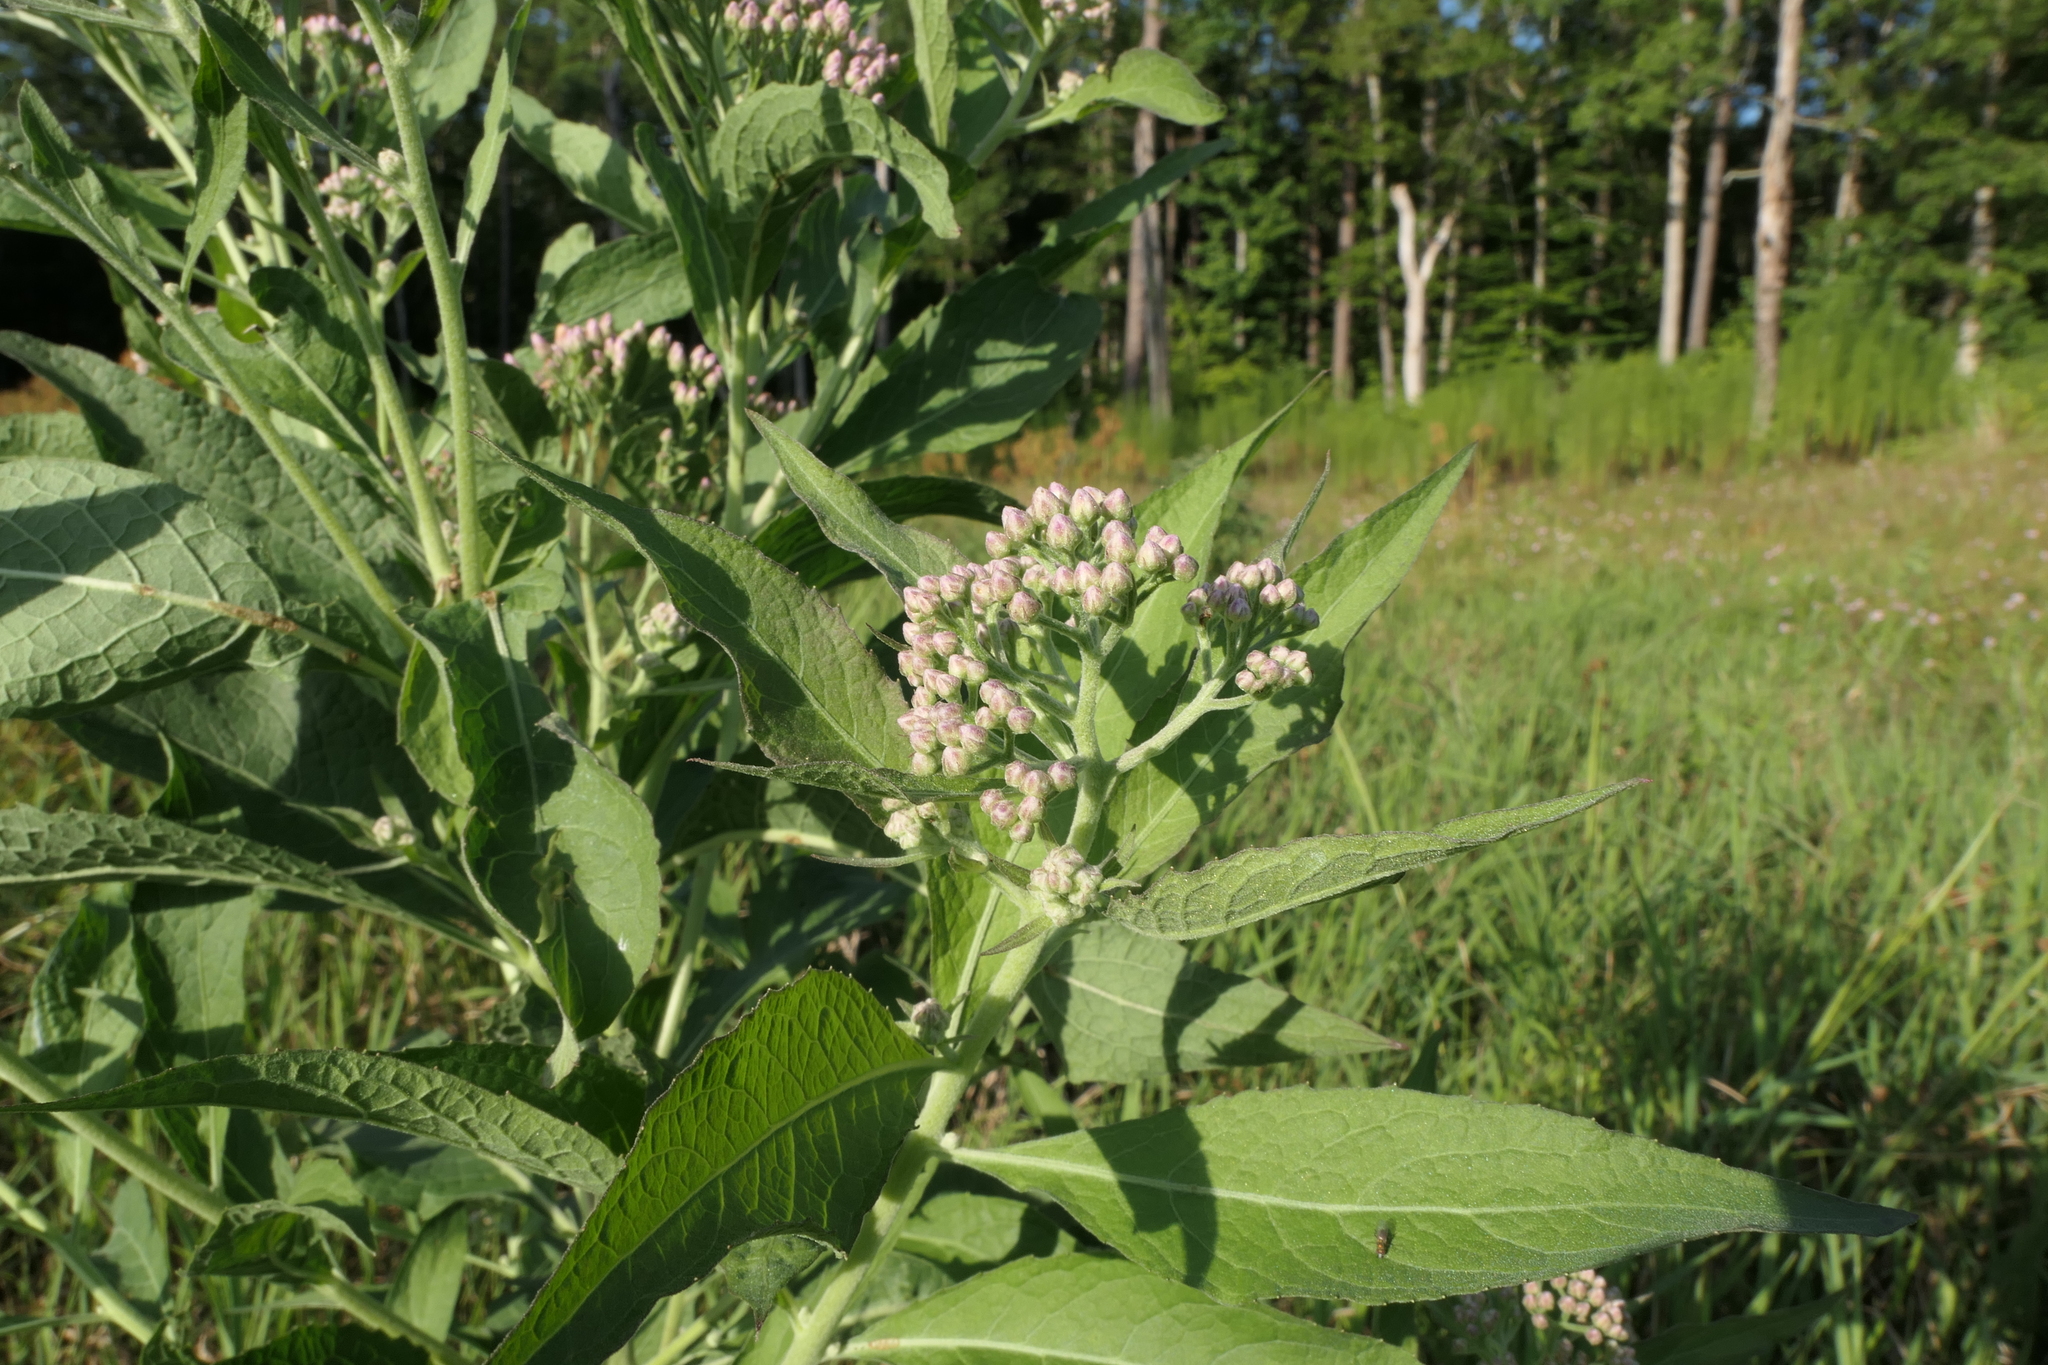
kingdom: Plantae
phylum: Tracheophyta
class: Magnoliopsida
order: Asterales
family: Asteraceae
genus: Pluchea
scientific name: Pluchea camphorata
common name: Camphor pluchea
